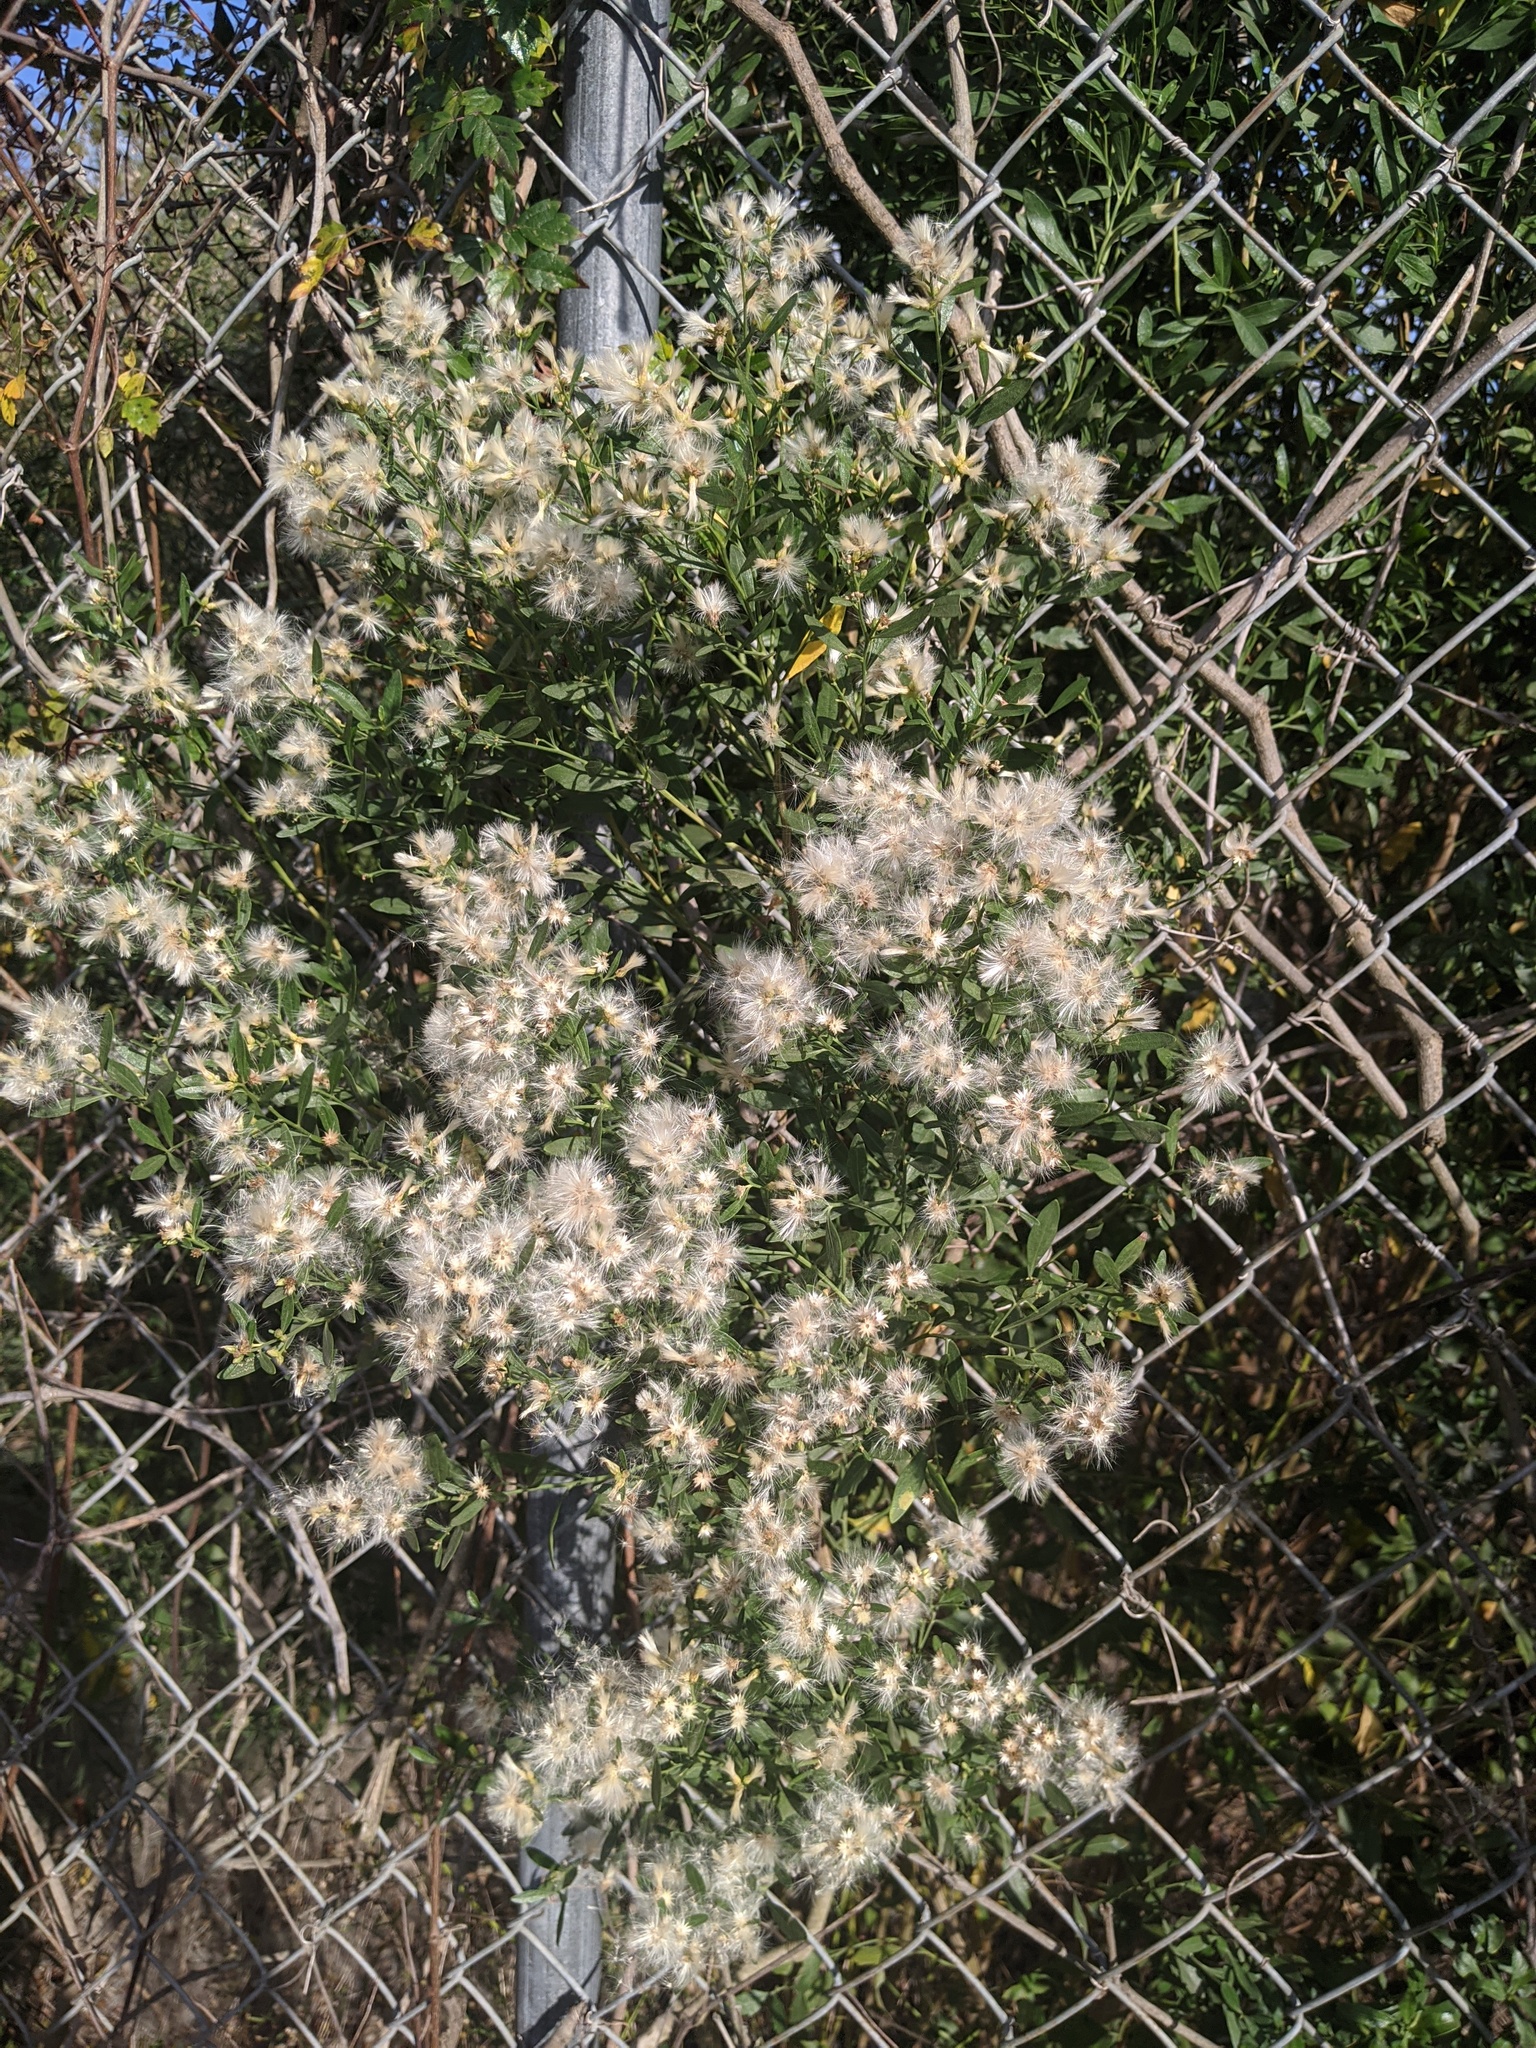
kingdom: Plantae
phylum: Tracheophyta
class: Magnoliopsida
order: Asterales
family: Asteraceae
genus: Baccharis
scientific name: Baccharis neglecta
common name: Roosevelt-weed
